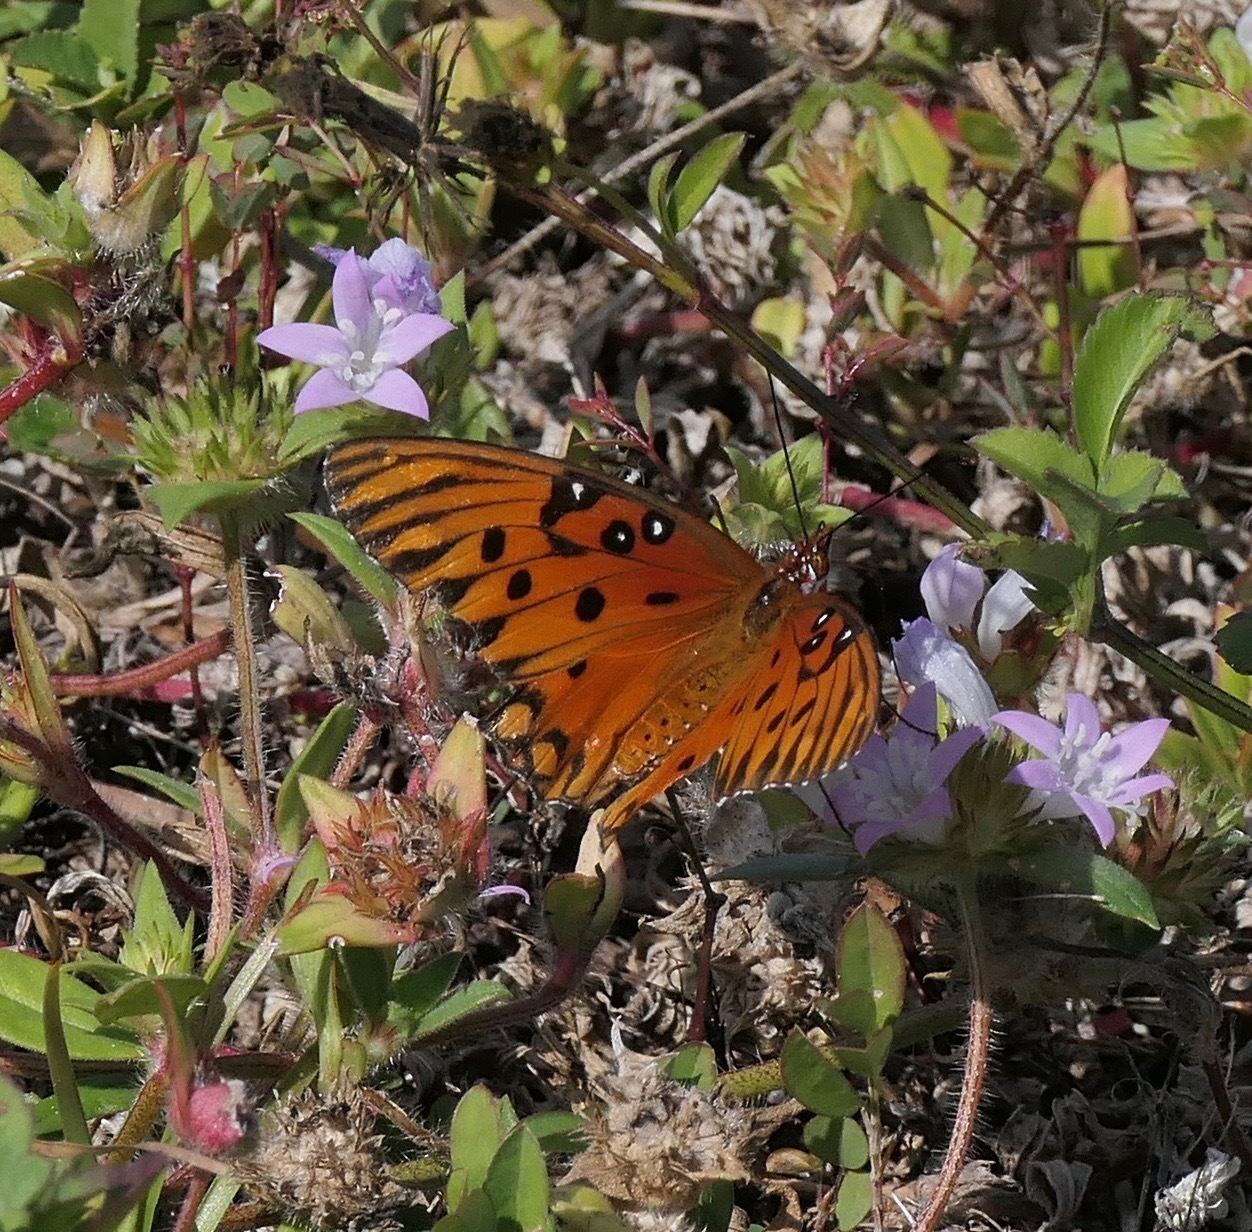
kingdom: Animalia
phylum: Arthropoda
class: Insecta
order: Lepidoptera
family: Nymphalidae
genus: Dione
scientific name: Dione vanillae
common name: Gulf fritillary
